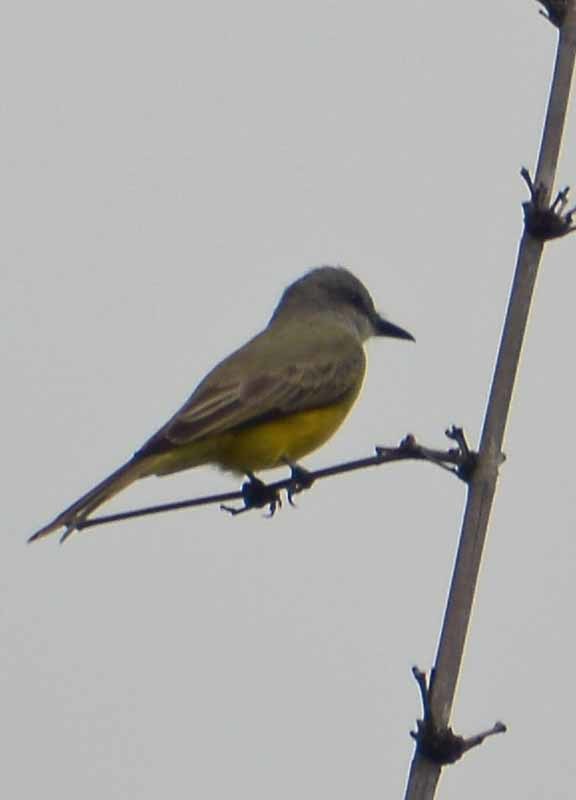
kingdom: Animalia
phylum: Chordata
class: Aves
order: Passeriformes
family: Tyrannidae
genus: Tyrannus
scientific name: Tyrannus melancholicus
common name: Tropical kingbird
